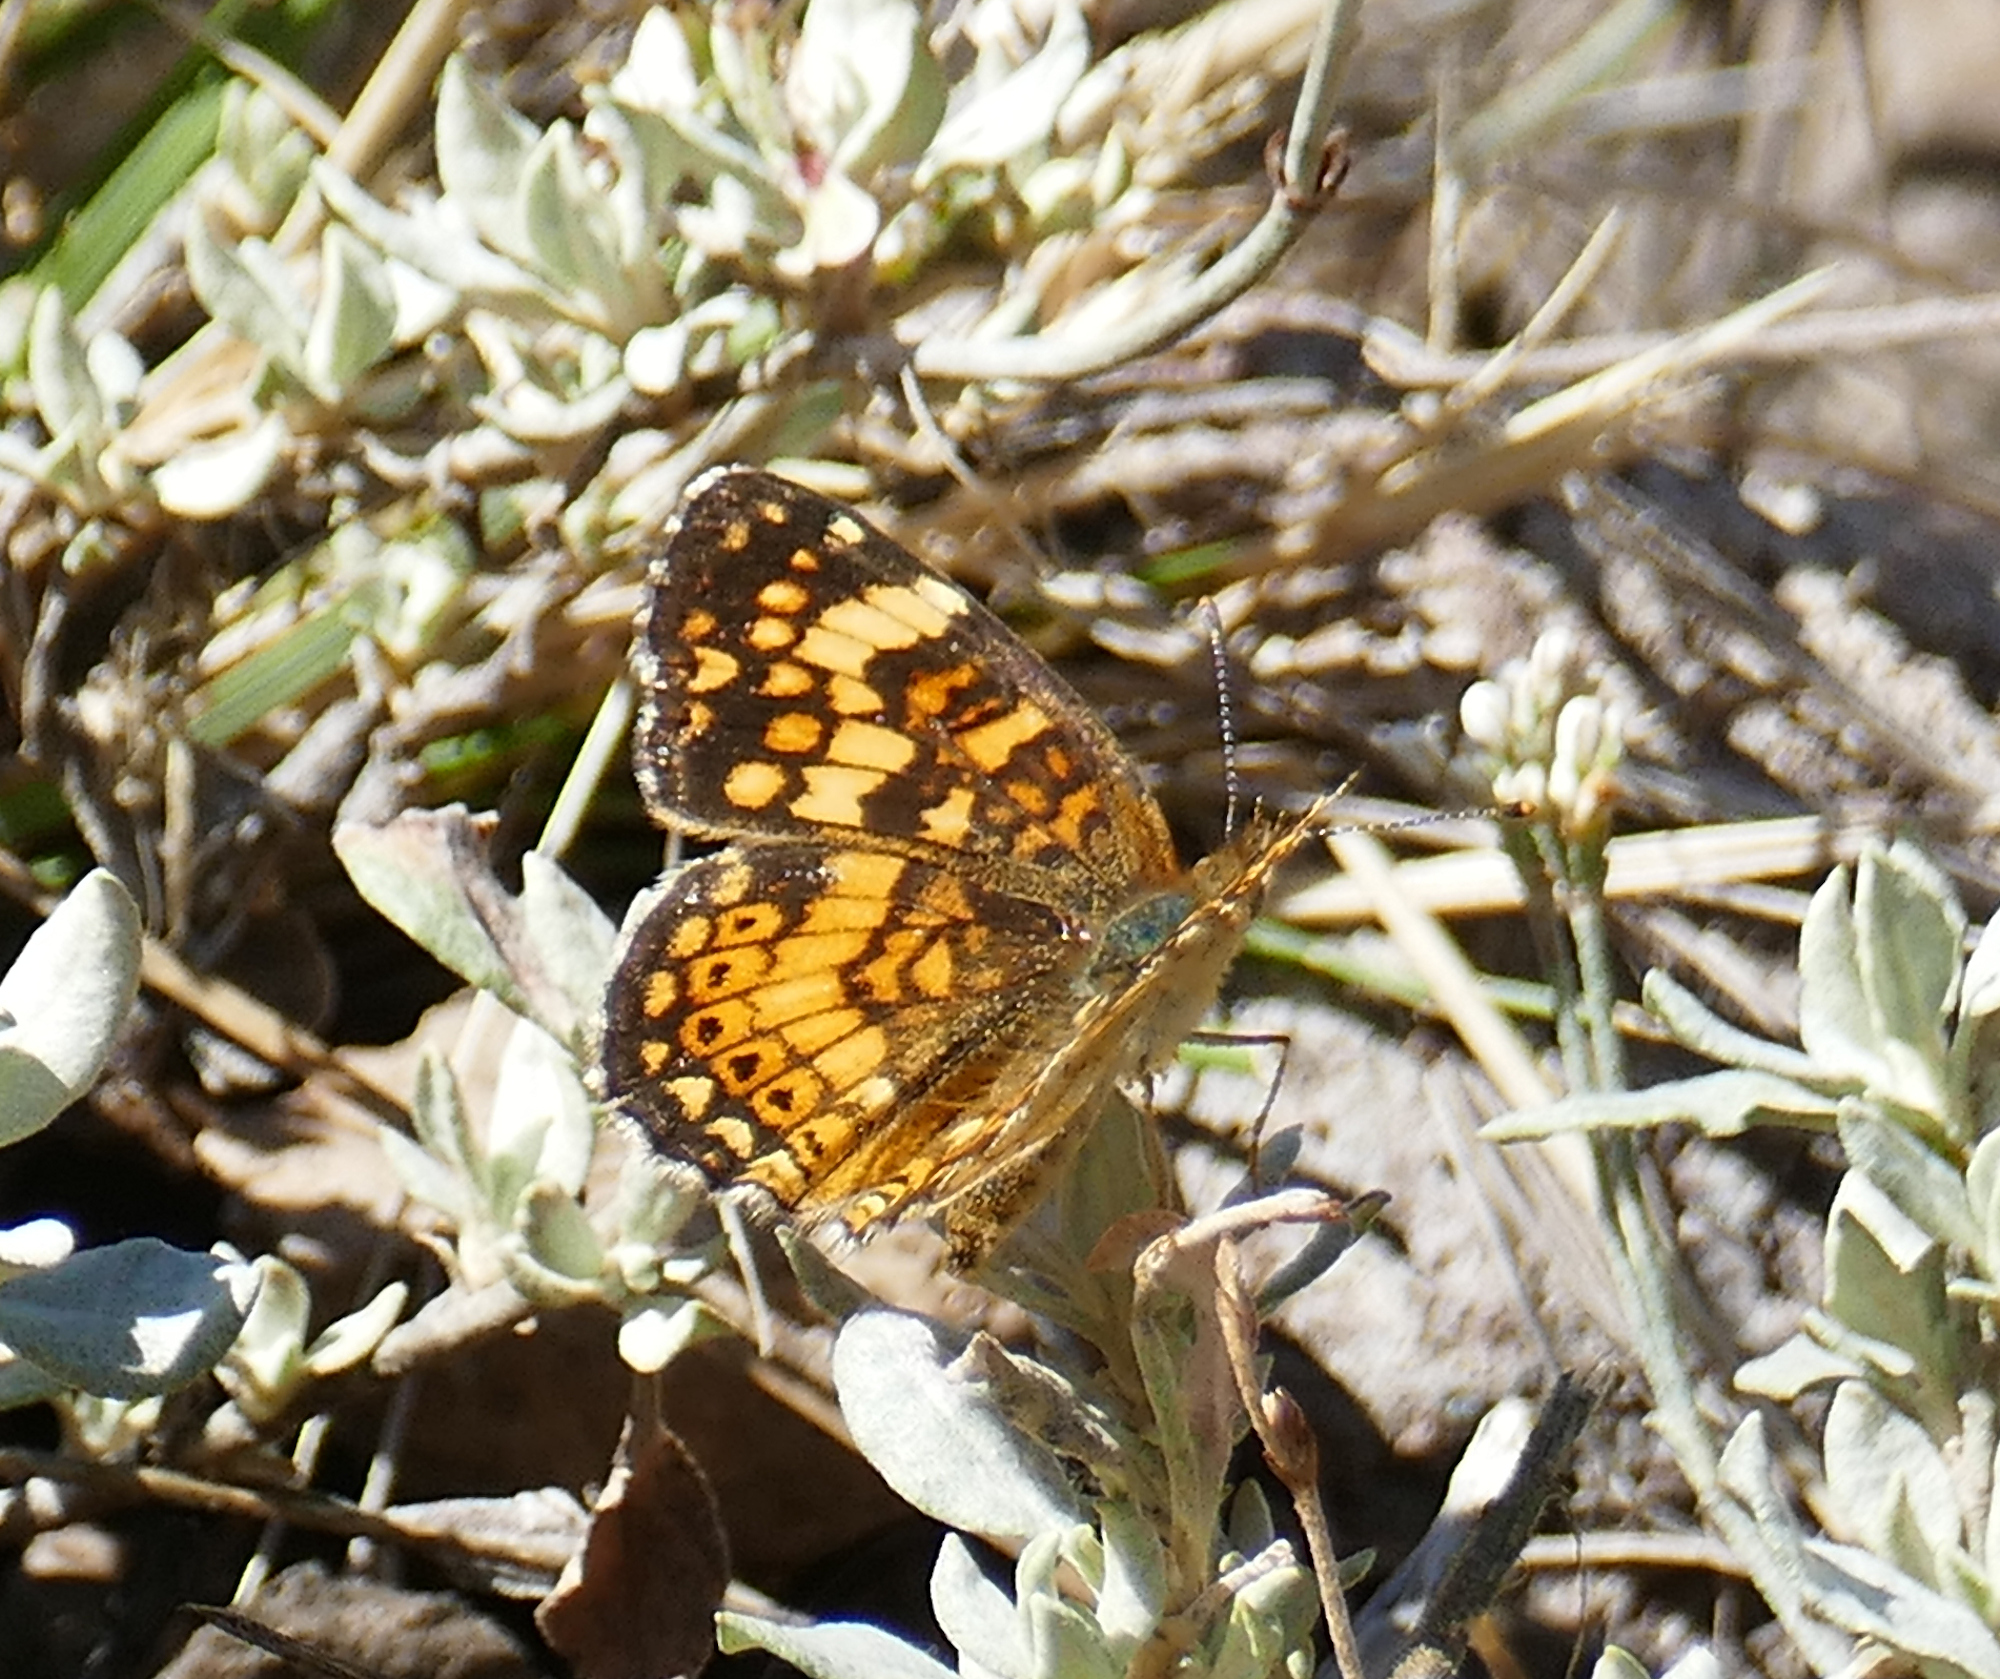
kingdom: Animalia
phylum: Arthropoda
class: Insecta
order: Lepidoptera
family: Nymphalidae
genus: Eresia
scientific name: Eresia aveyrona
